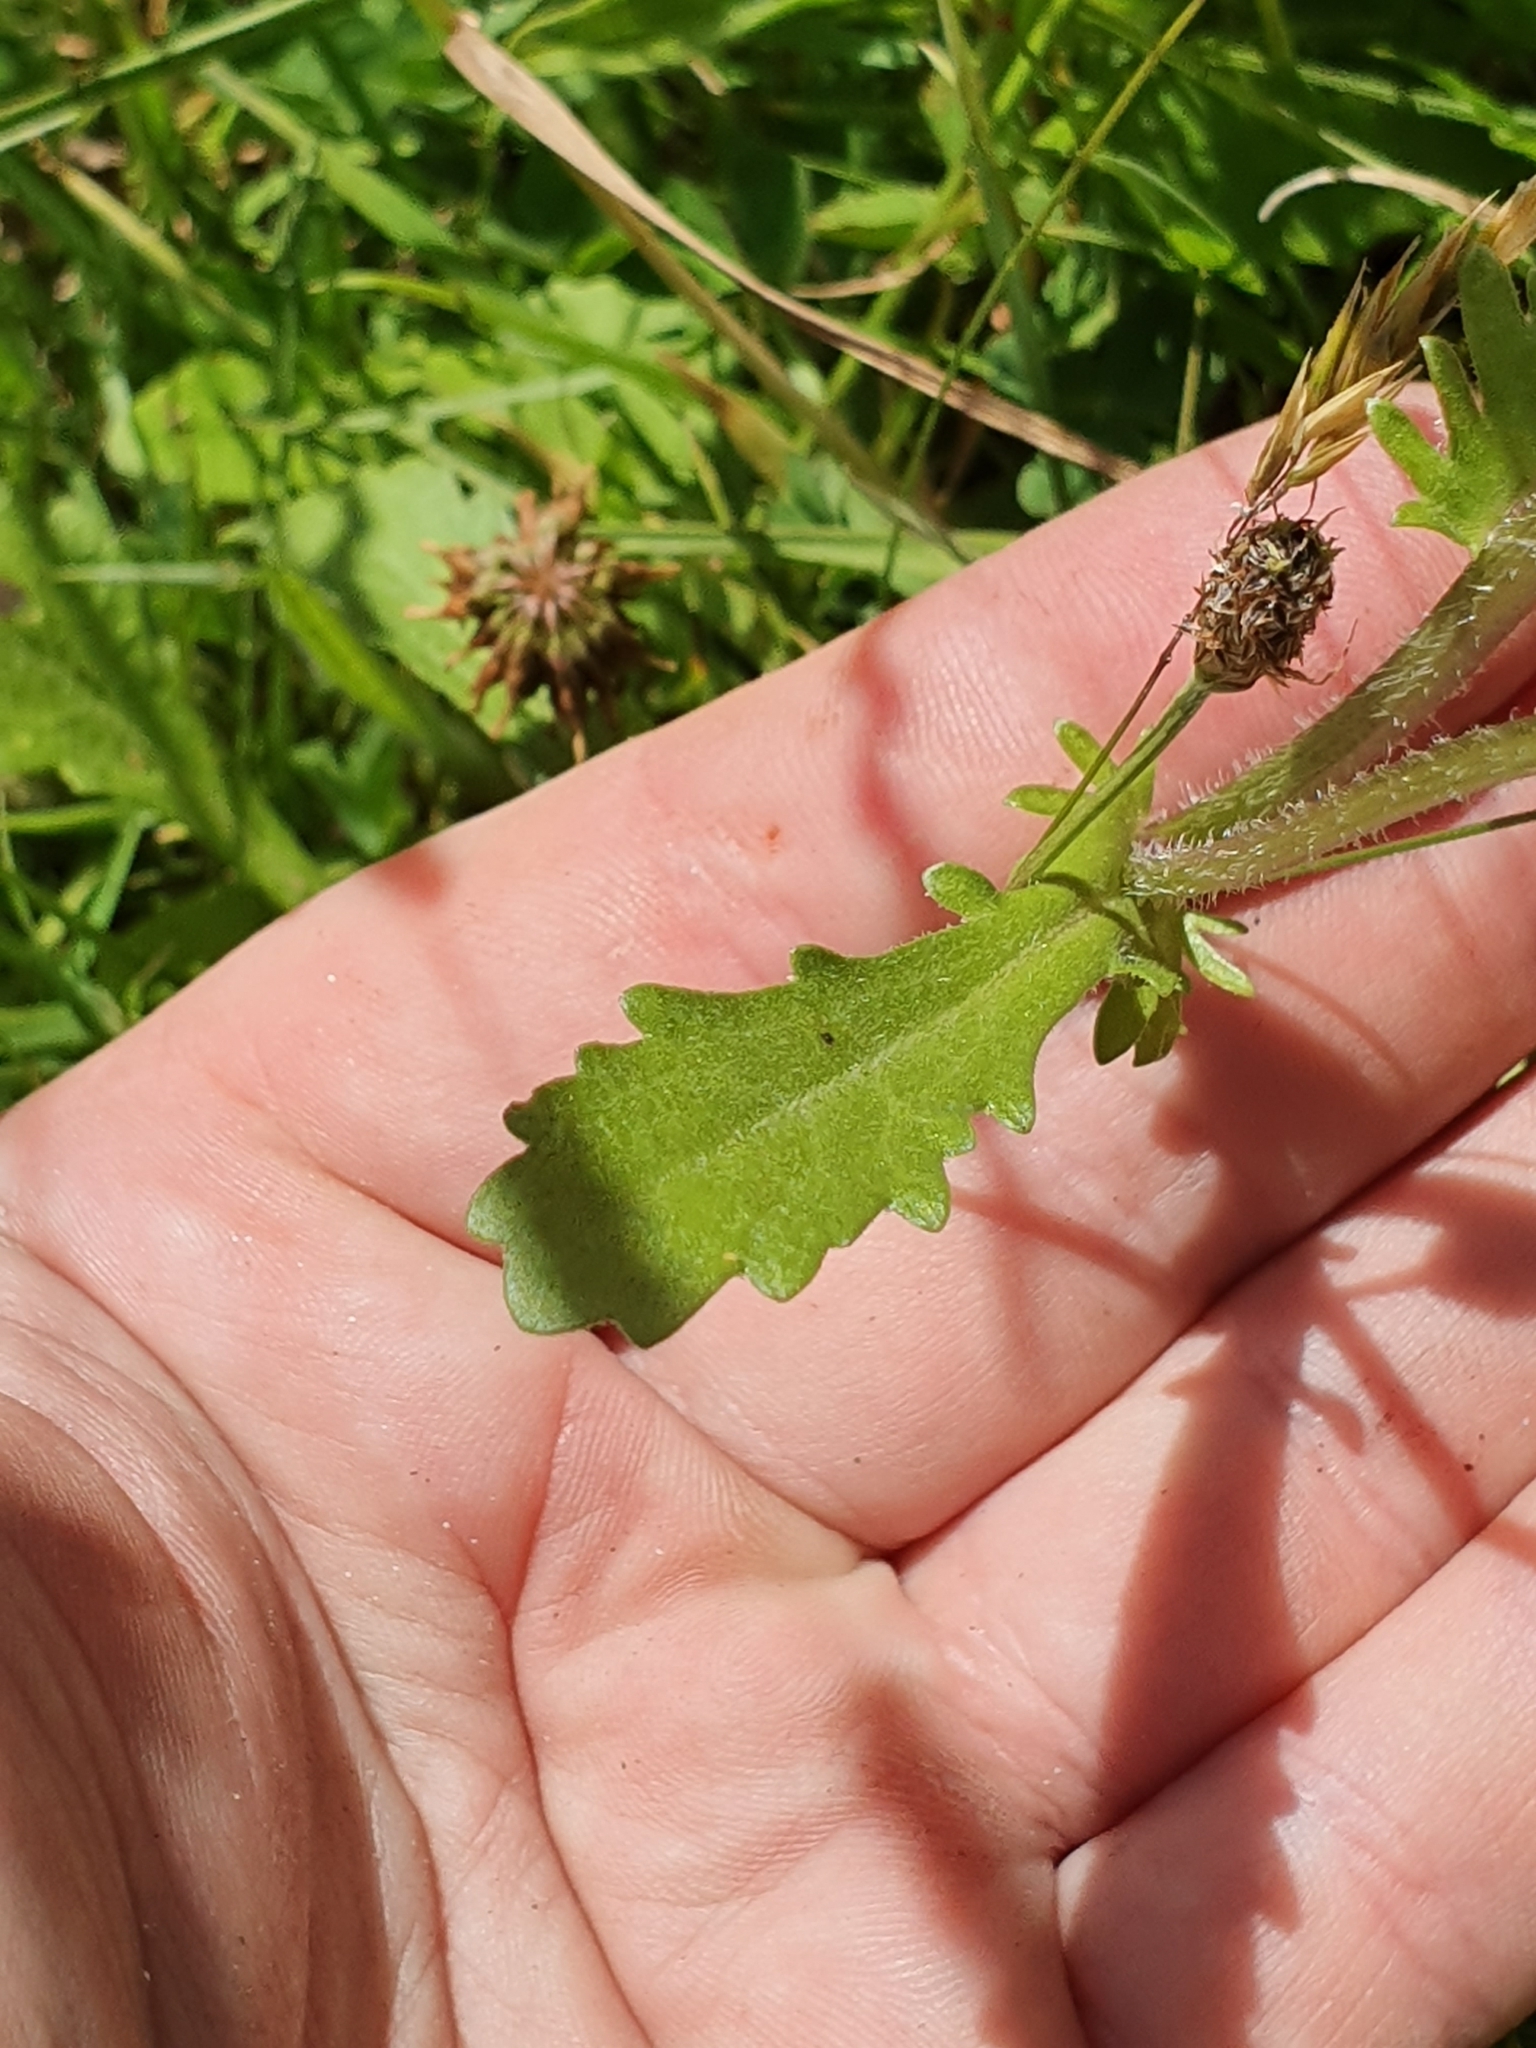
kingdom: Plantae
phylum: Tracheophyta
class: Magnoliopsida
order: Asterales
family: Asteraceae
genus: Leucanthemum
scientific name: Leucanthemum vulgare
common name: Oxeye daisy
